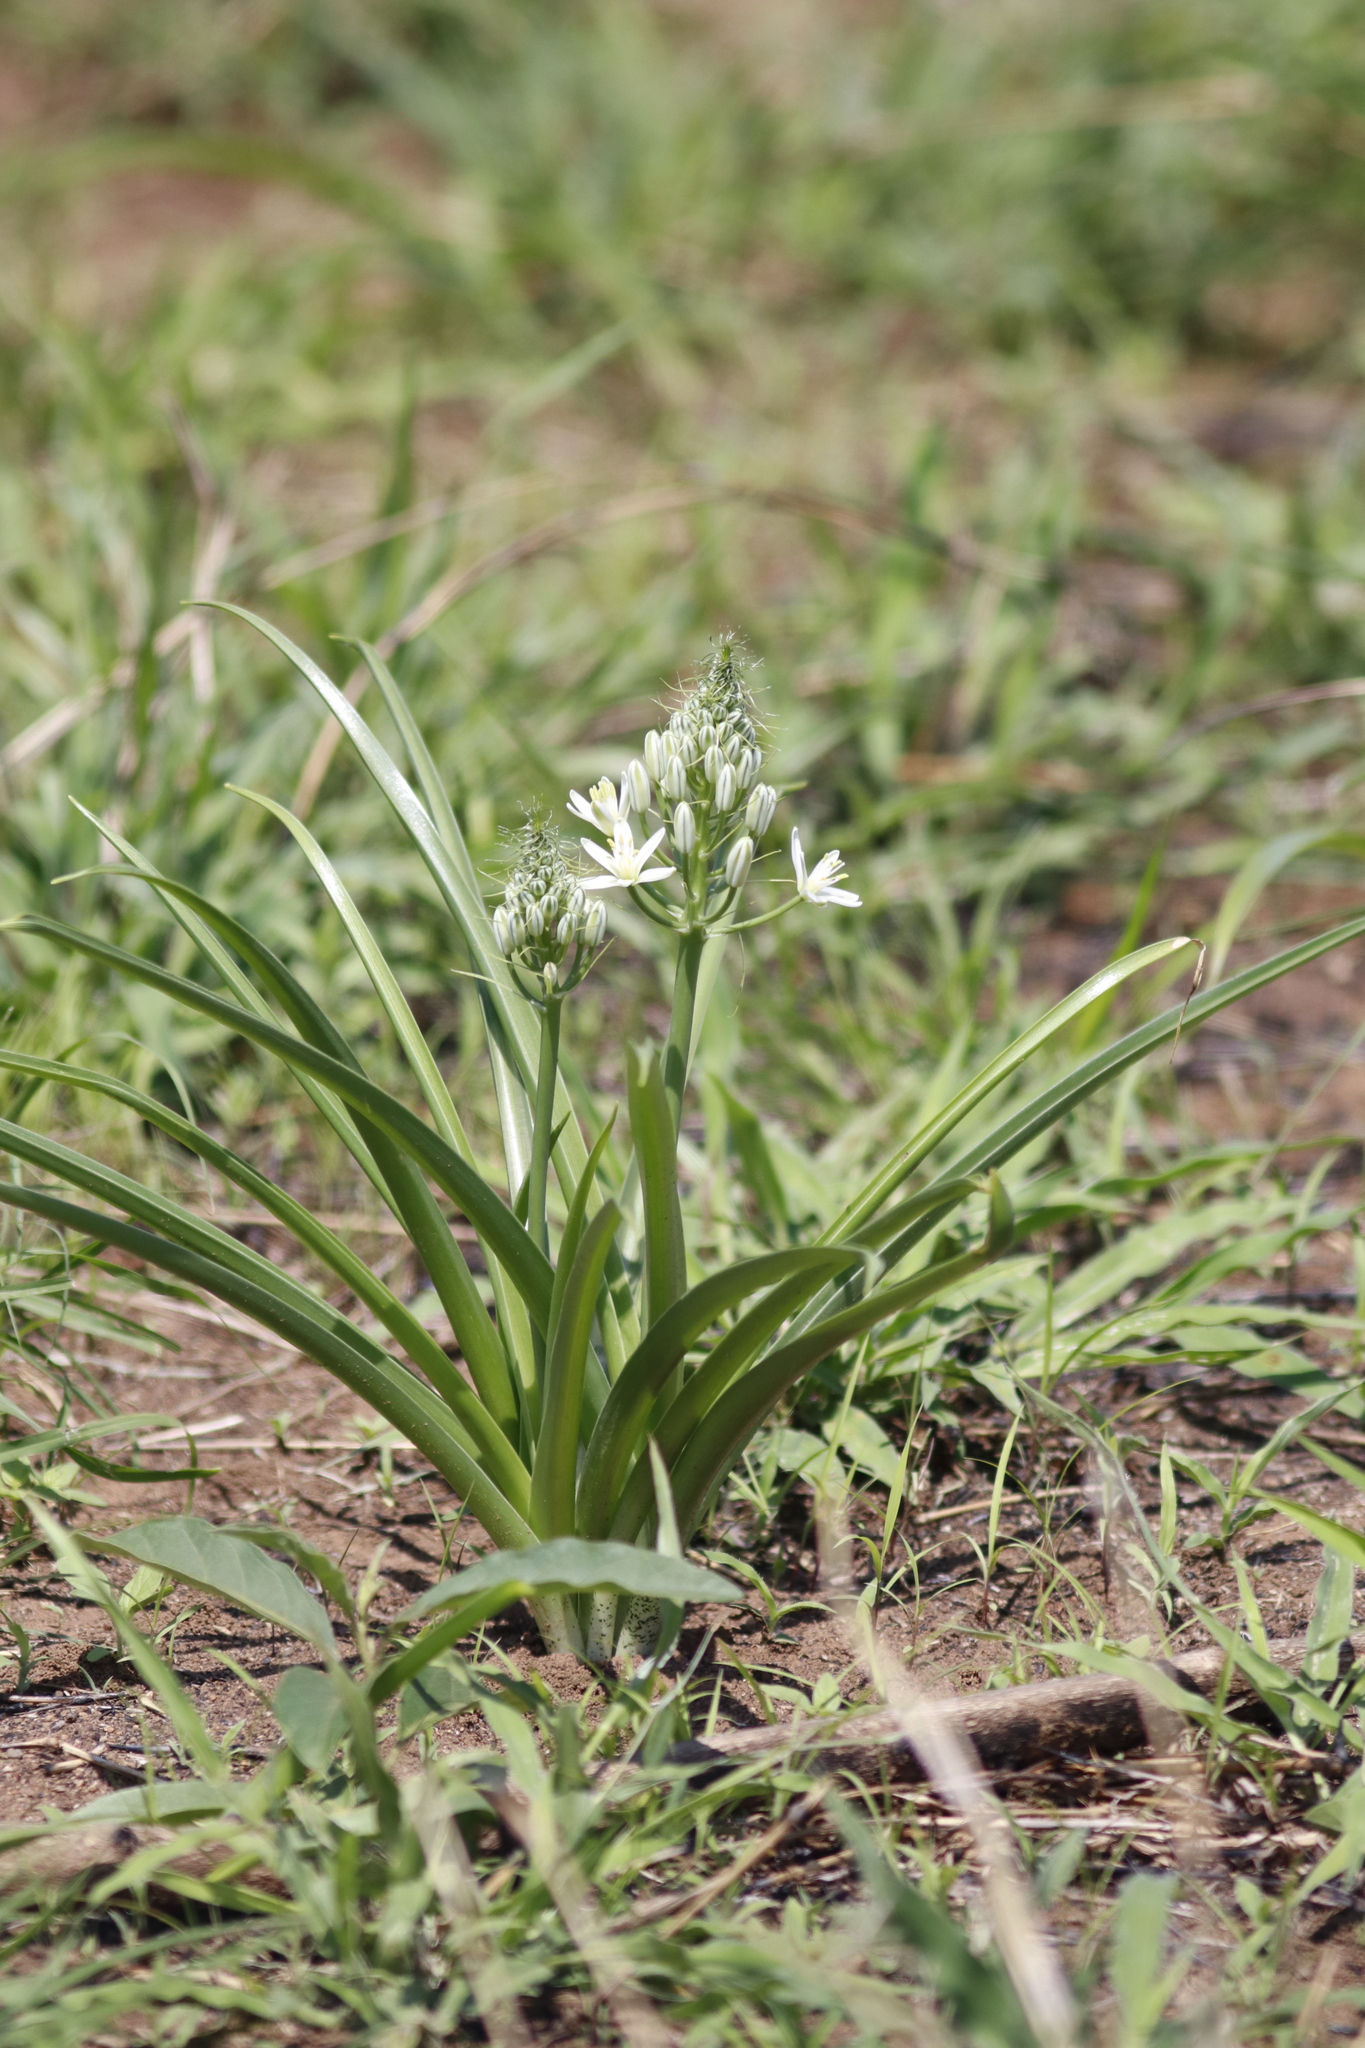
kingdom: Plantae
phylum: Tracheophyta
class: Liliopsida
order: Asparagales
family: Asparagaceae
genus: Albuca
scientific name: Albuca seineri
